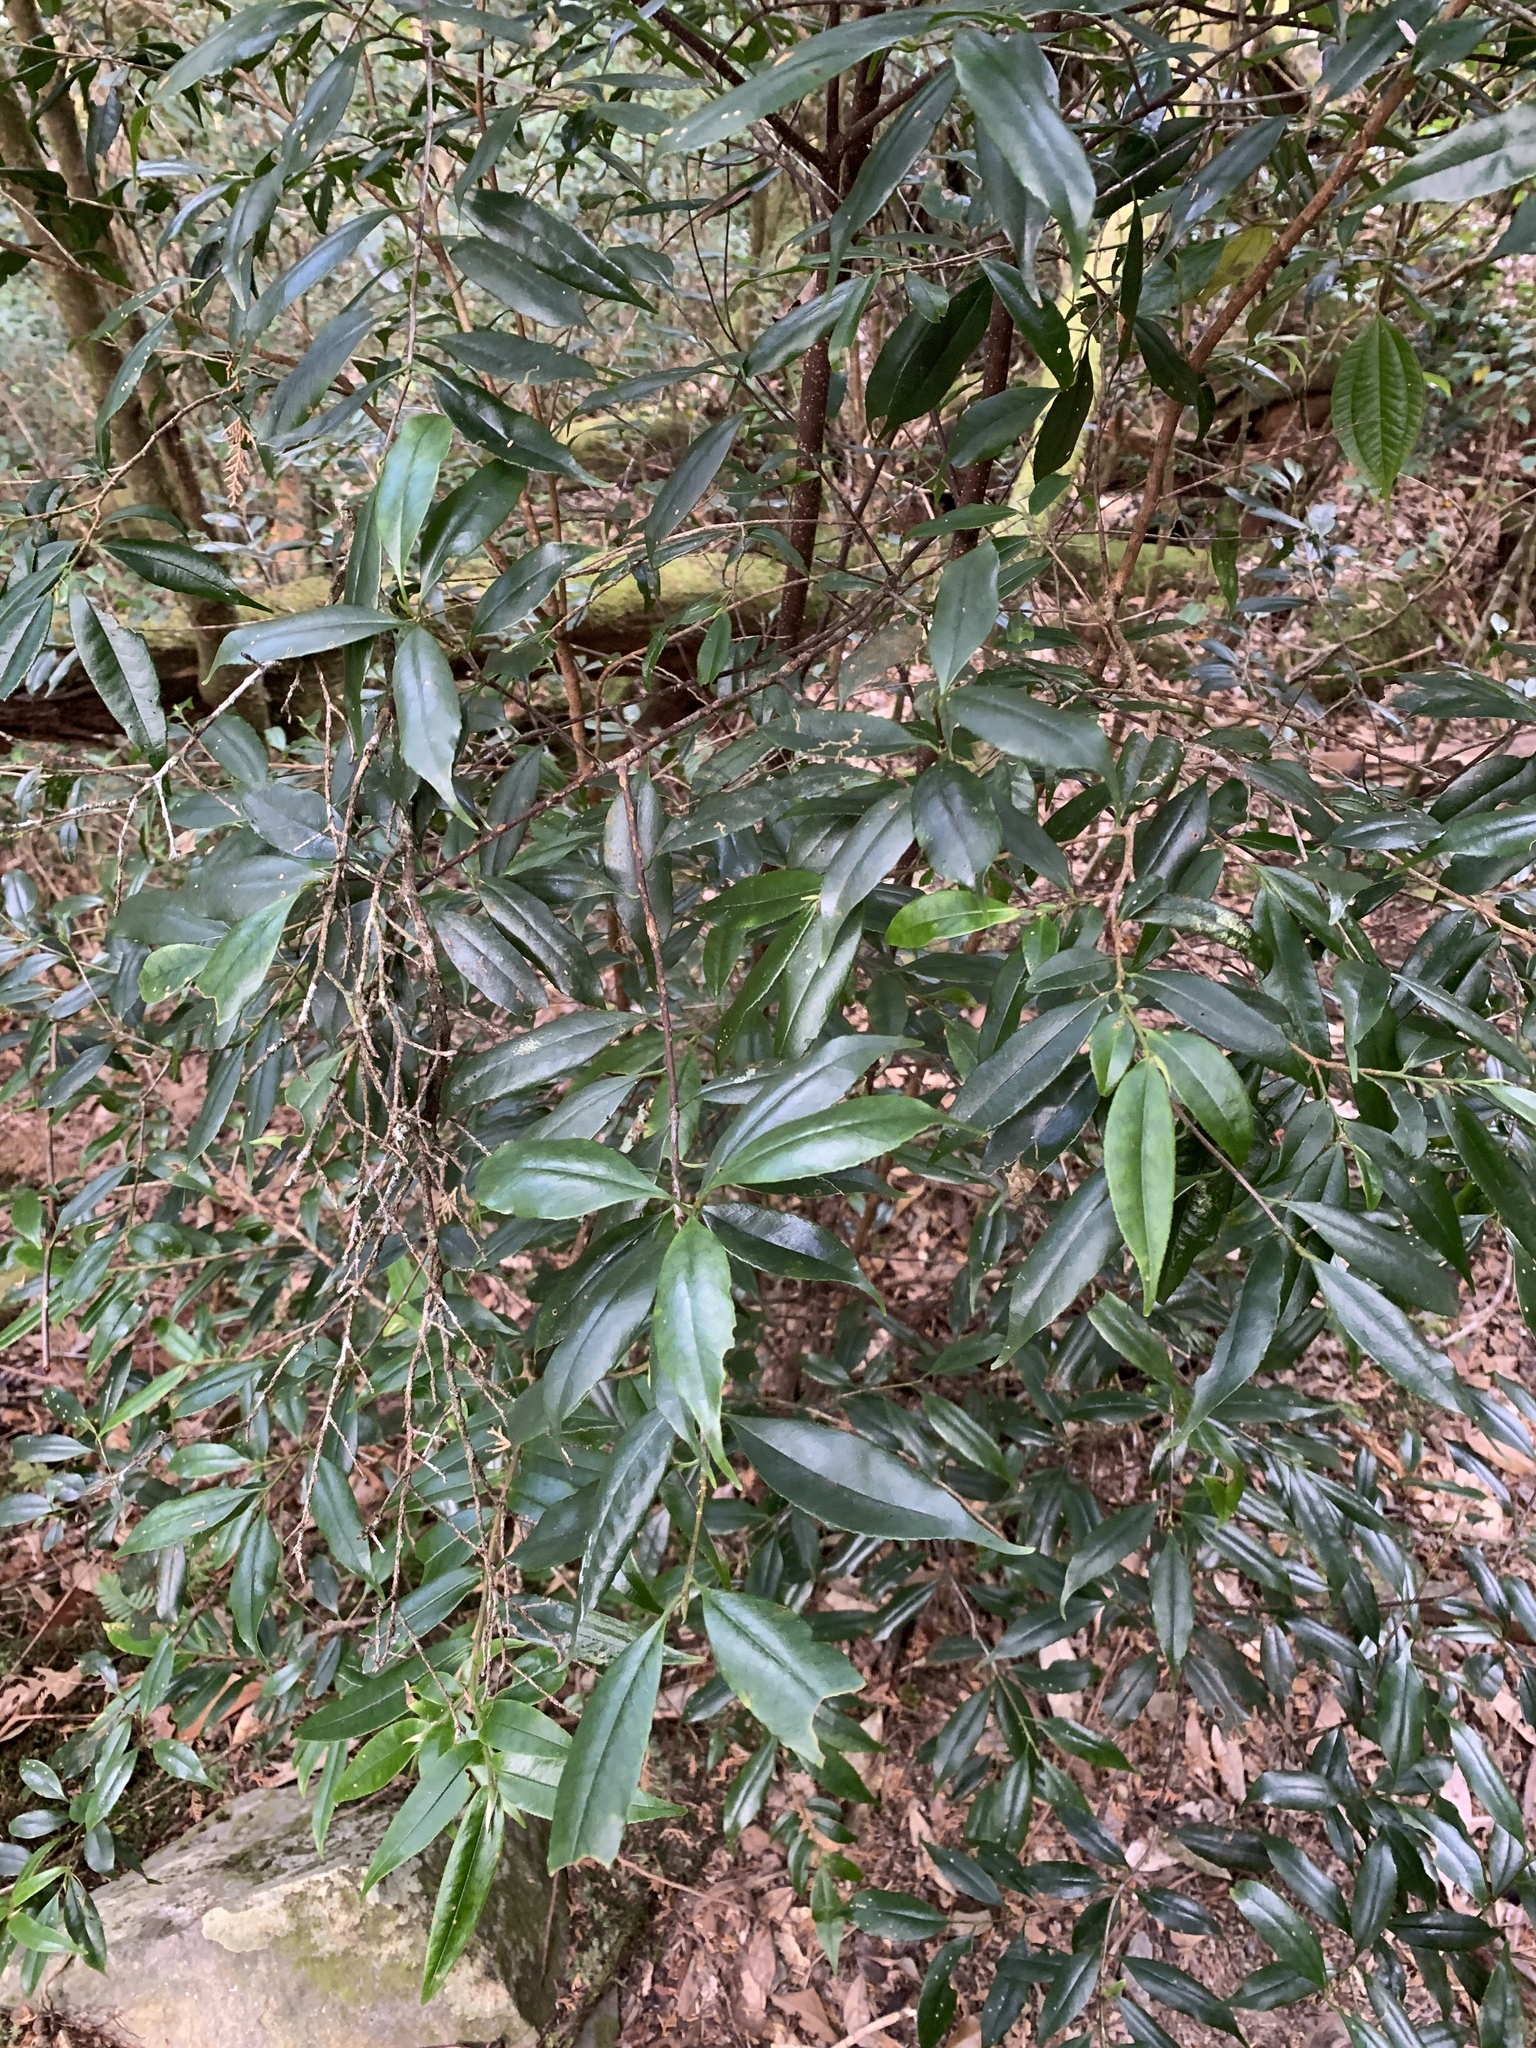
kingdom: Plantae
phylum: Tracheophyta
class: Magnoliopsida
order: Ericales
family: Symplocaceae
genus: Symplocos
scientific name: Symplocos heishanensis
